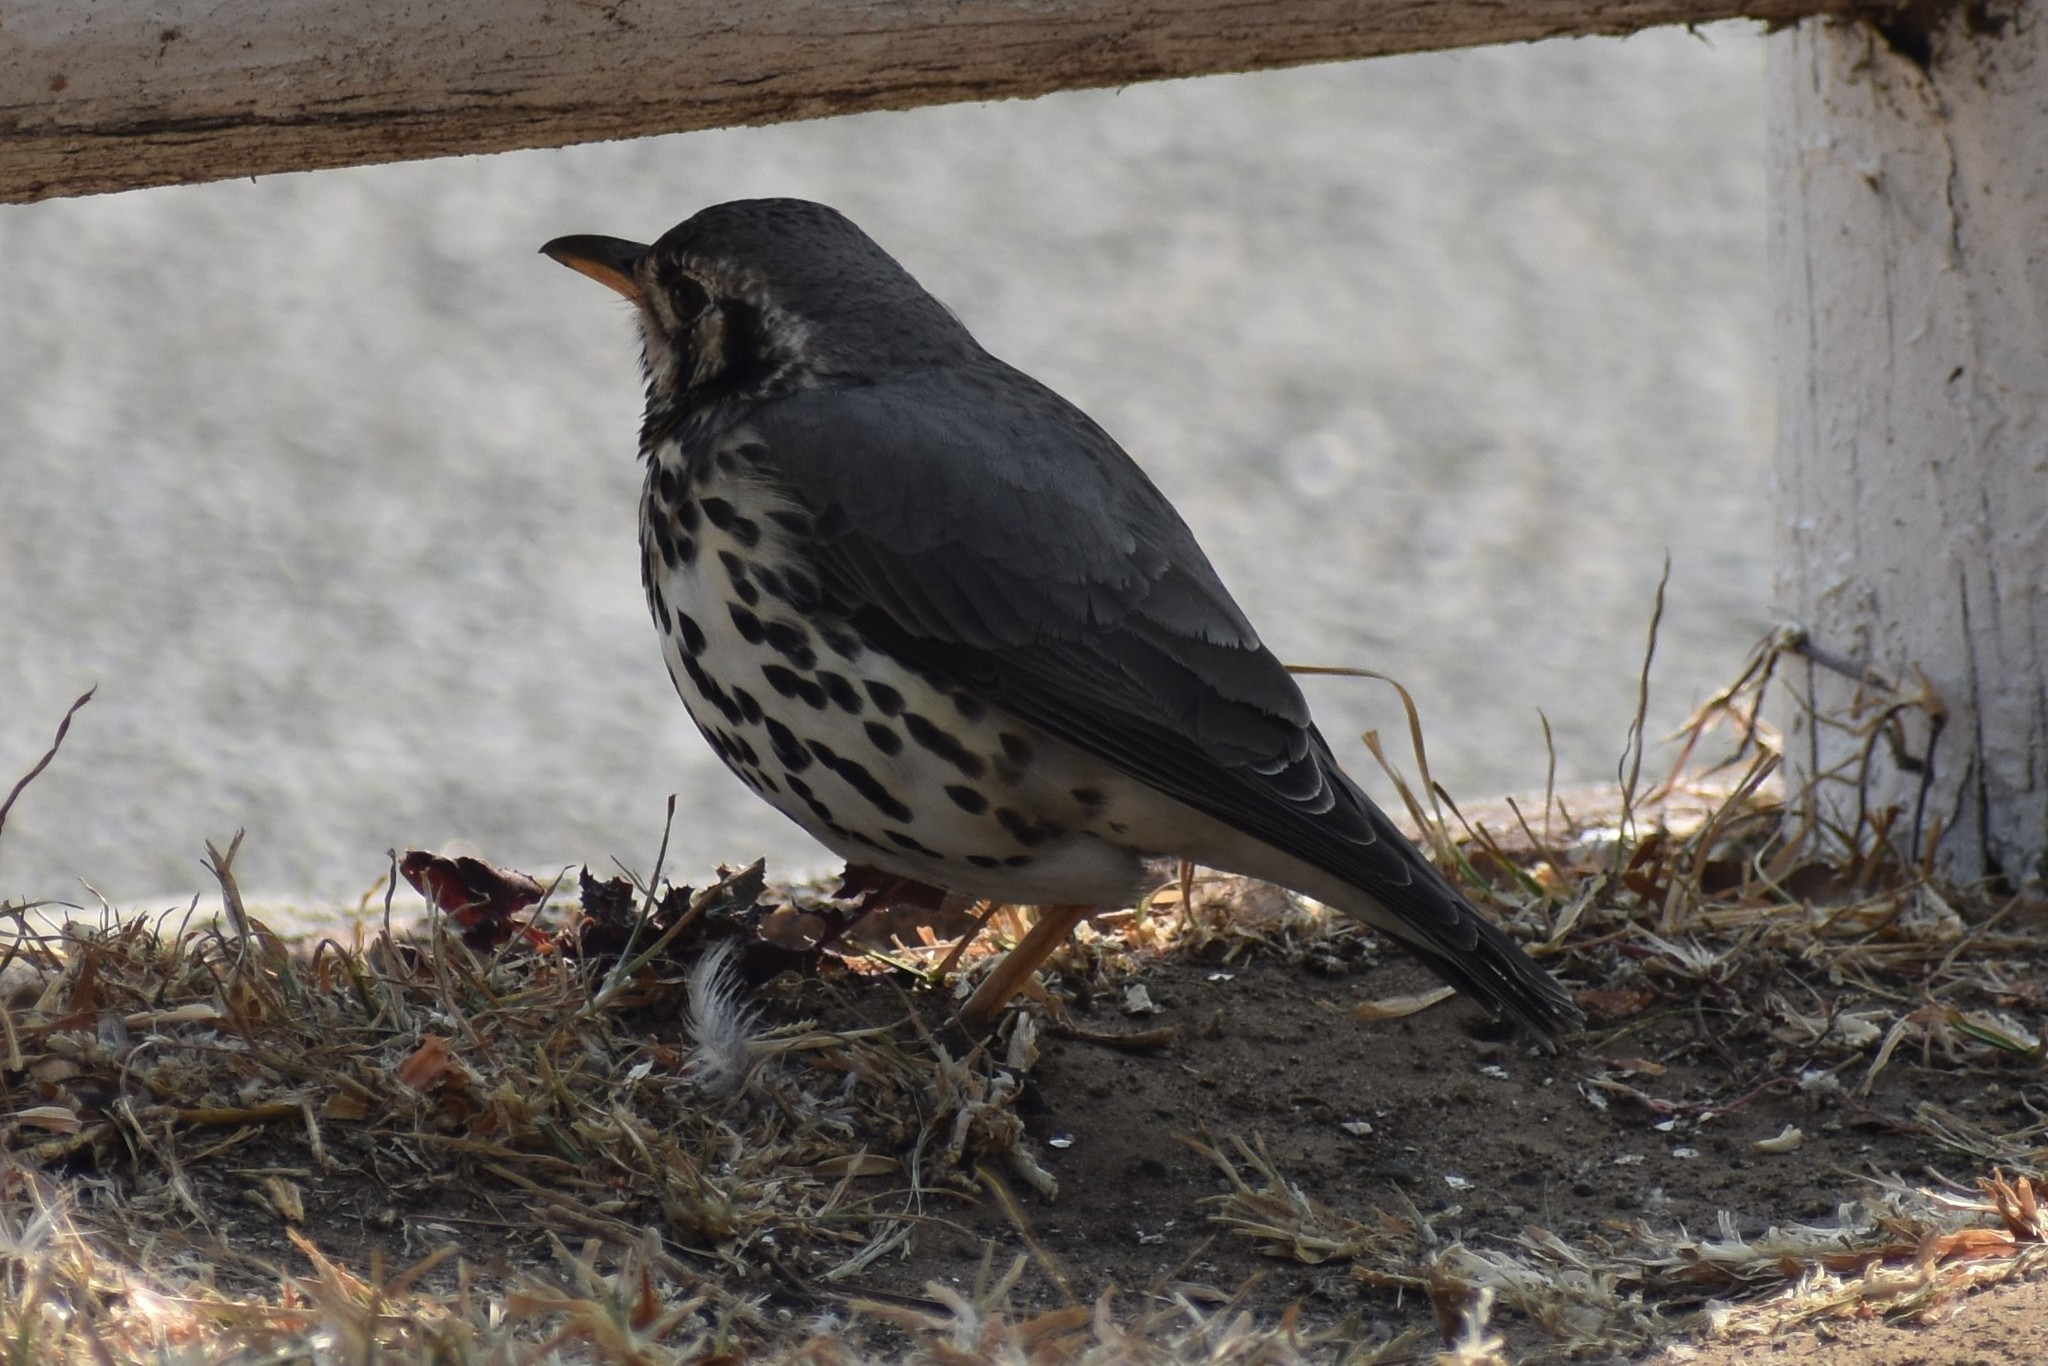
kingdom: Animalia
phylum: Chordata
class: Aves
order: Passeriformes
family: Turdidae
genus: Psophocichla
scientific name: Psophocichla litsitsirupa
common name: Groundscraper thrush
